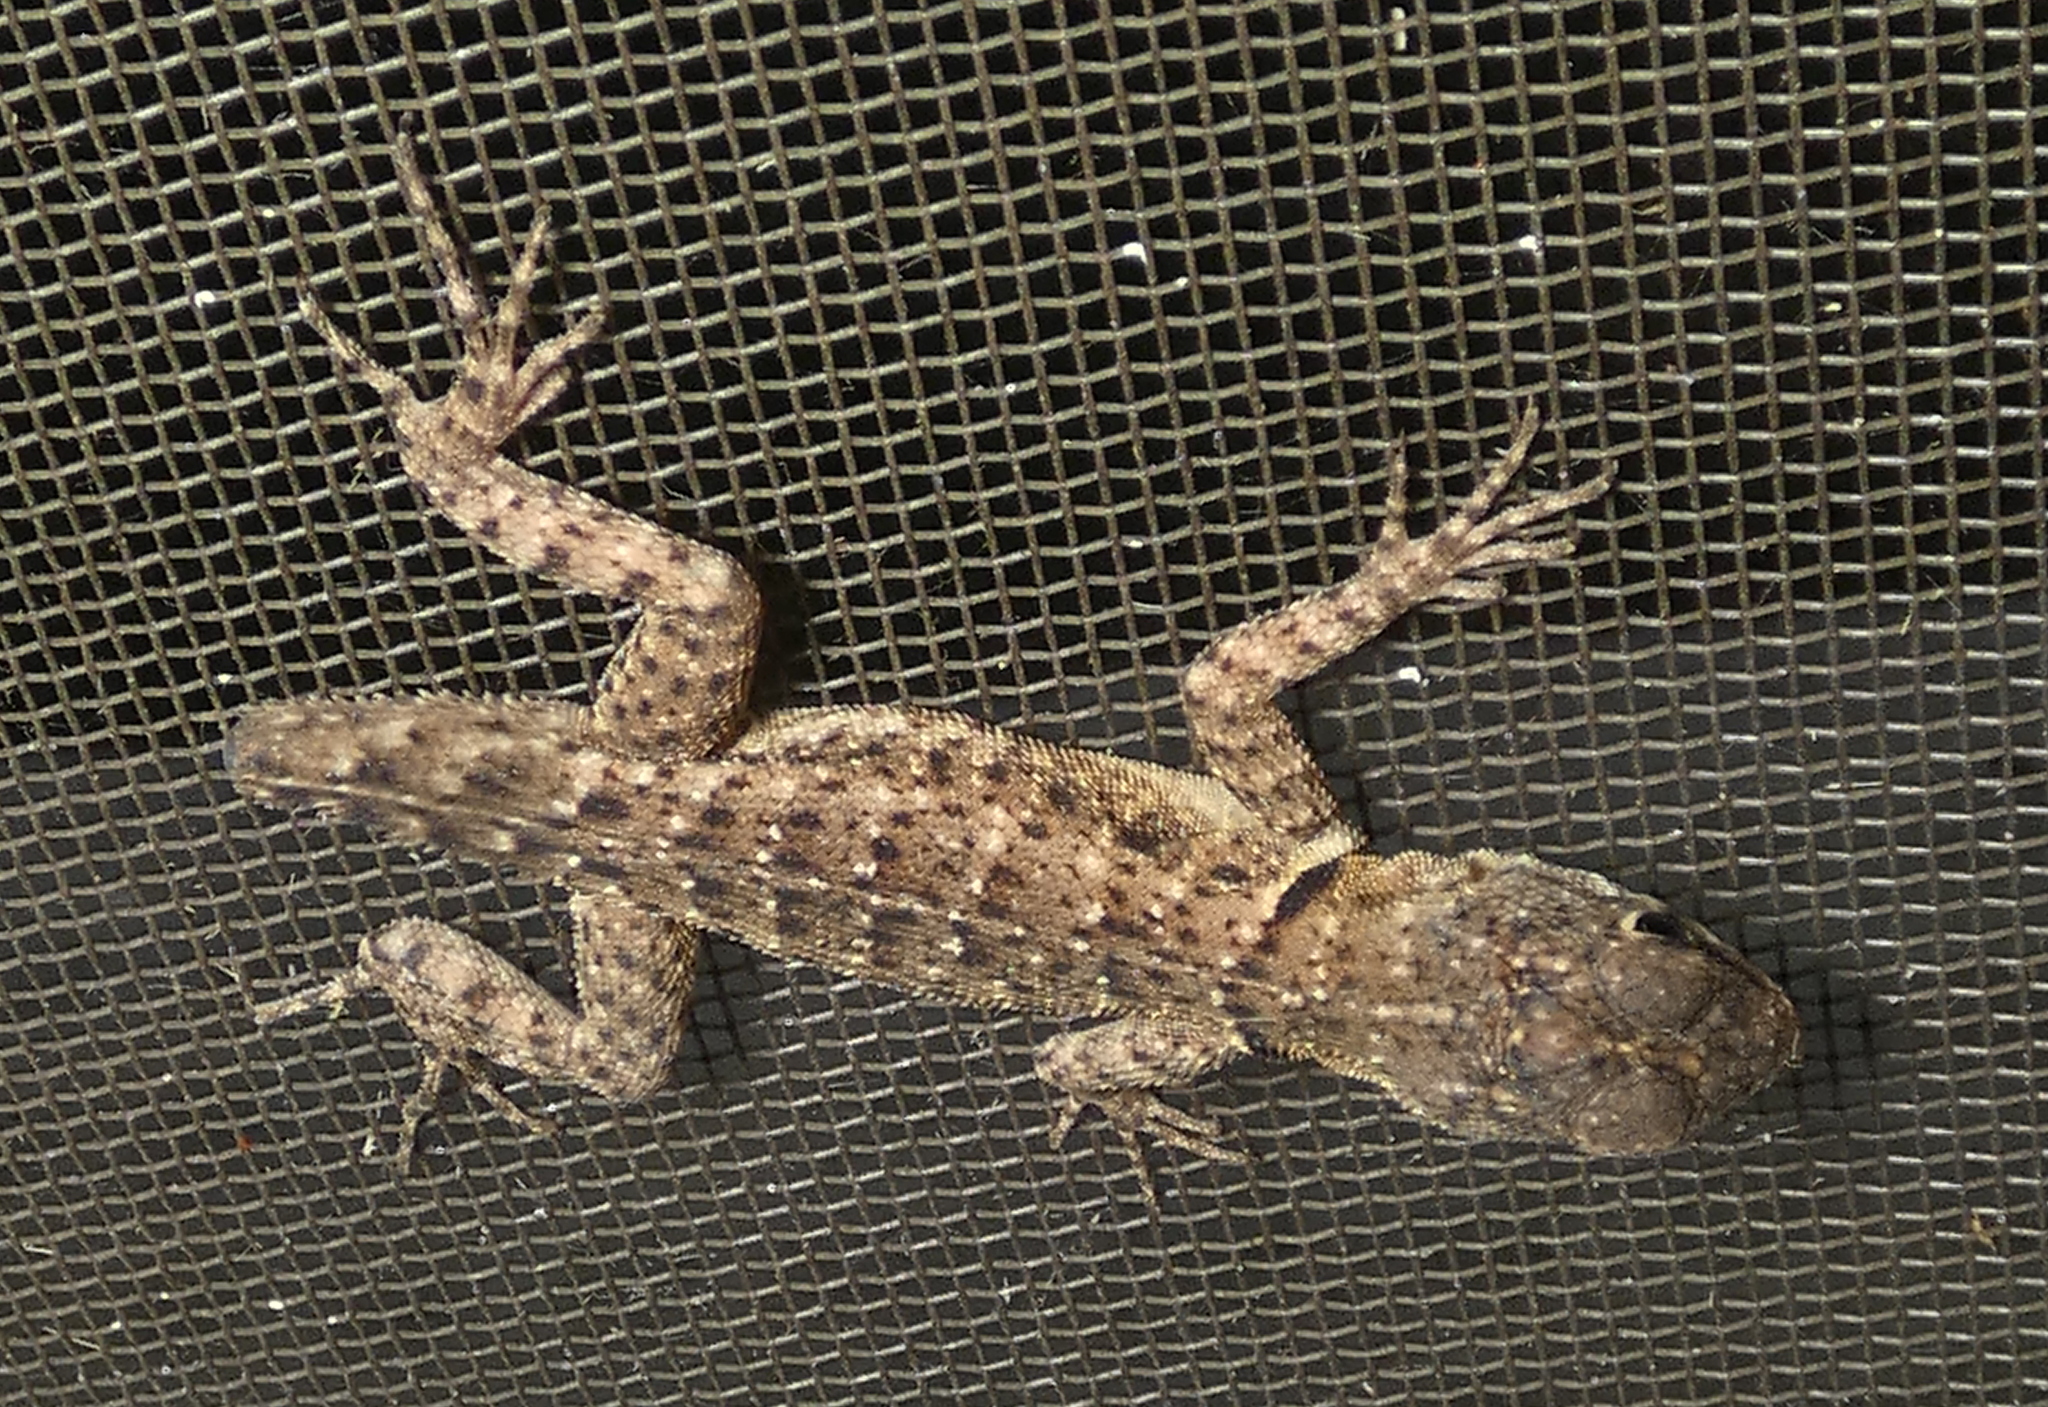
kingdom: Animalia
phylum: Chordata
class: Squamata
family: Tropiduridae
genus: Tropidurus
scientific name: Tropidurus hispidus
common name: Peters' lava lizard
